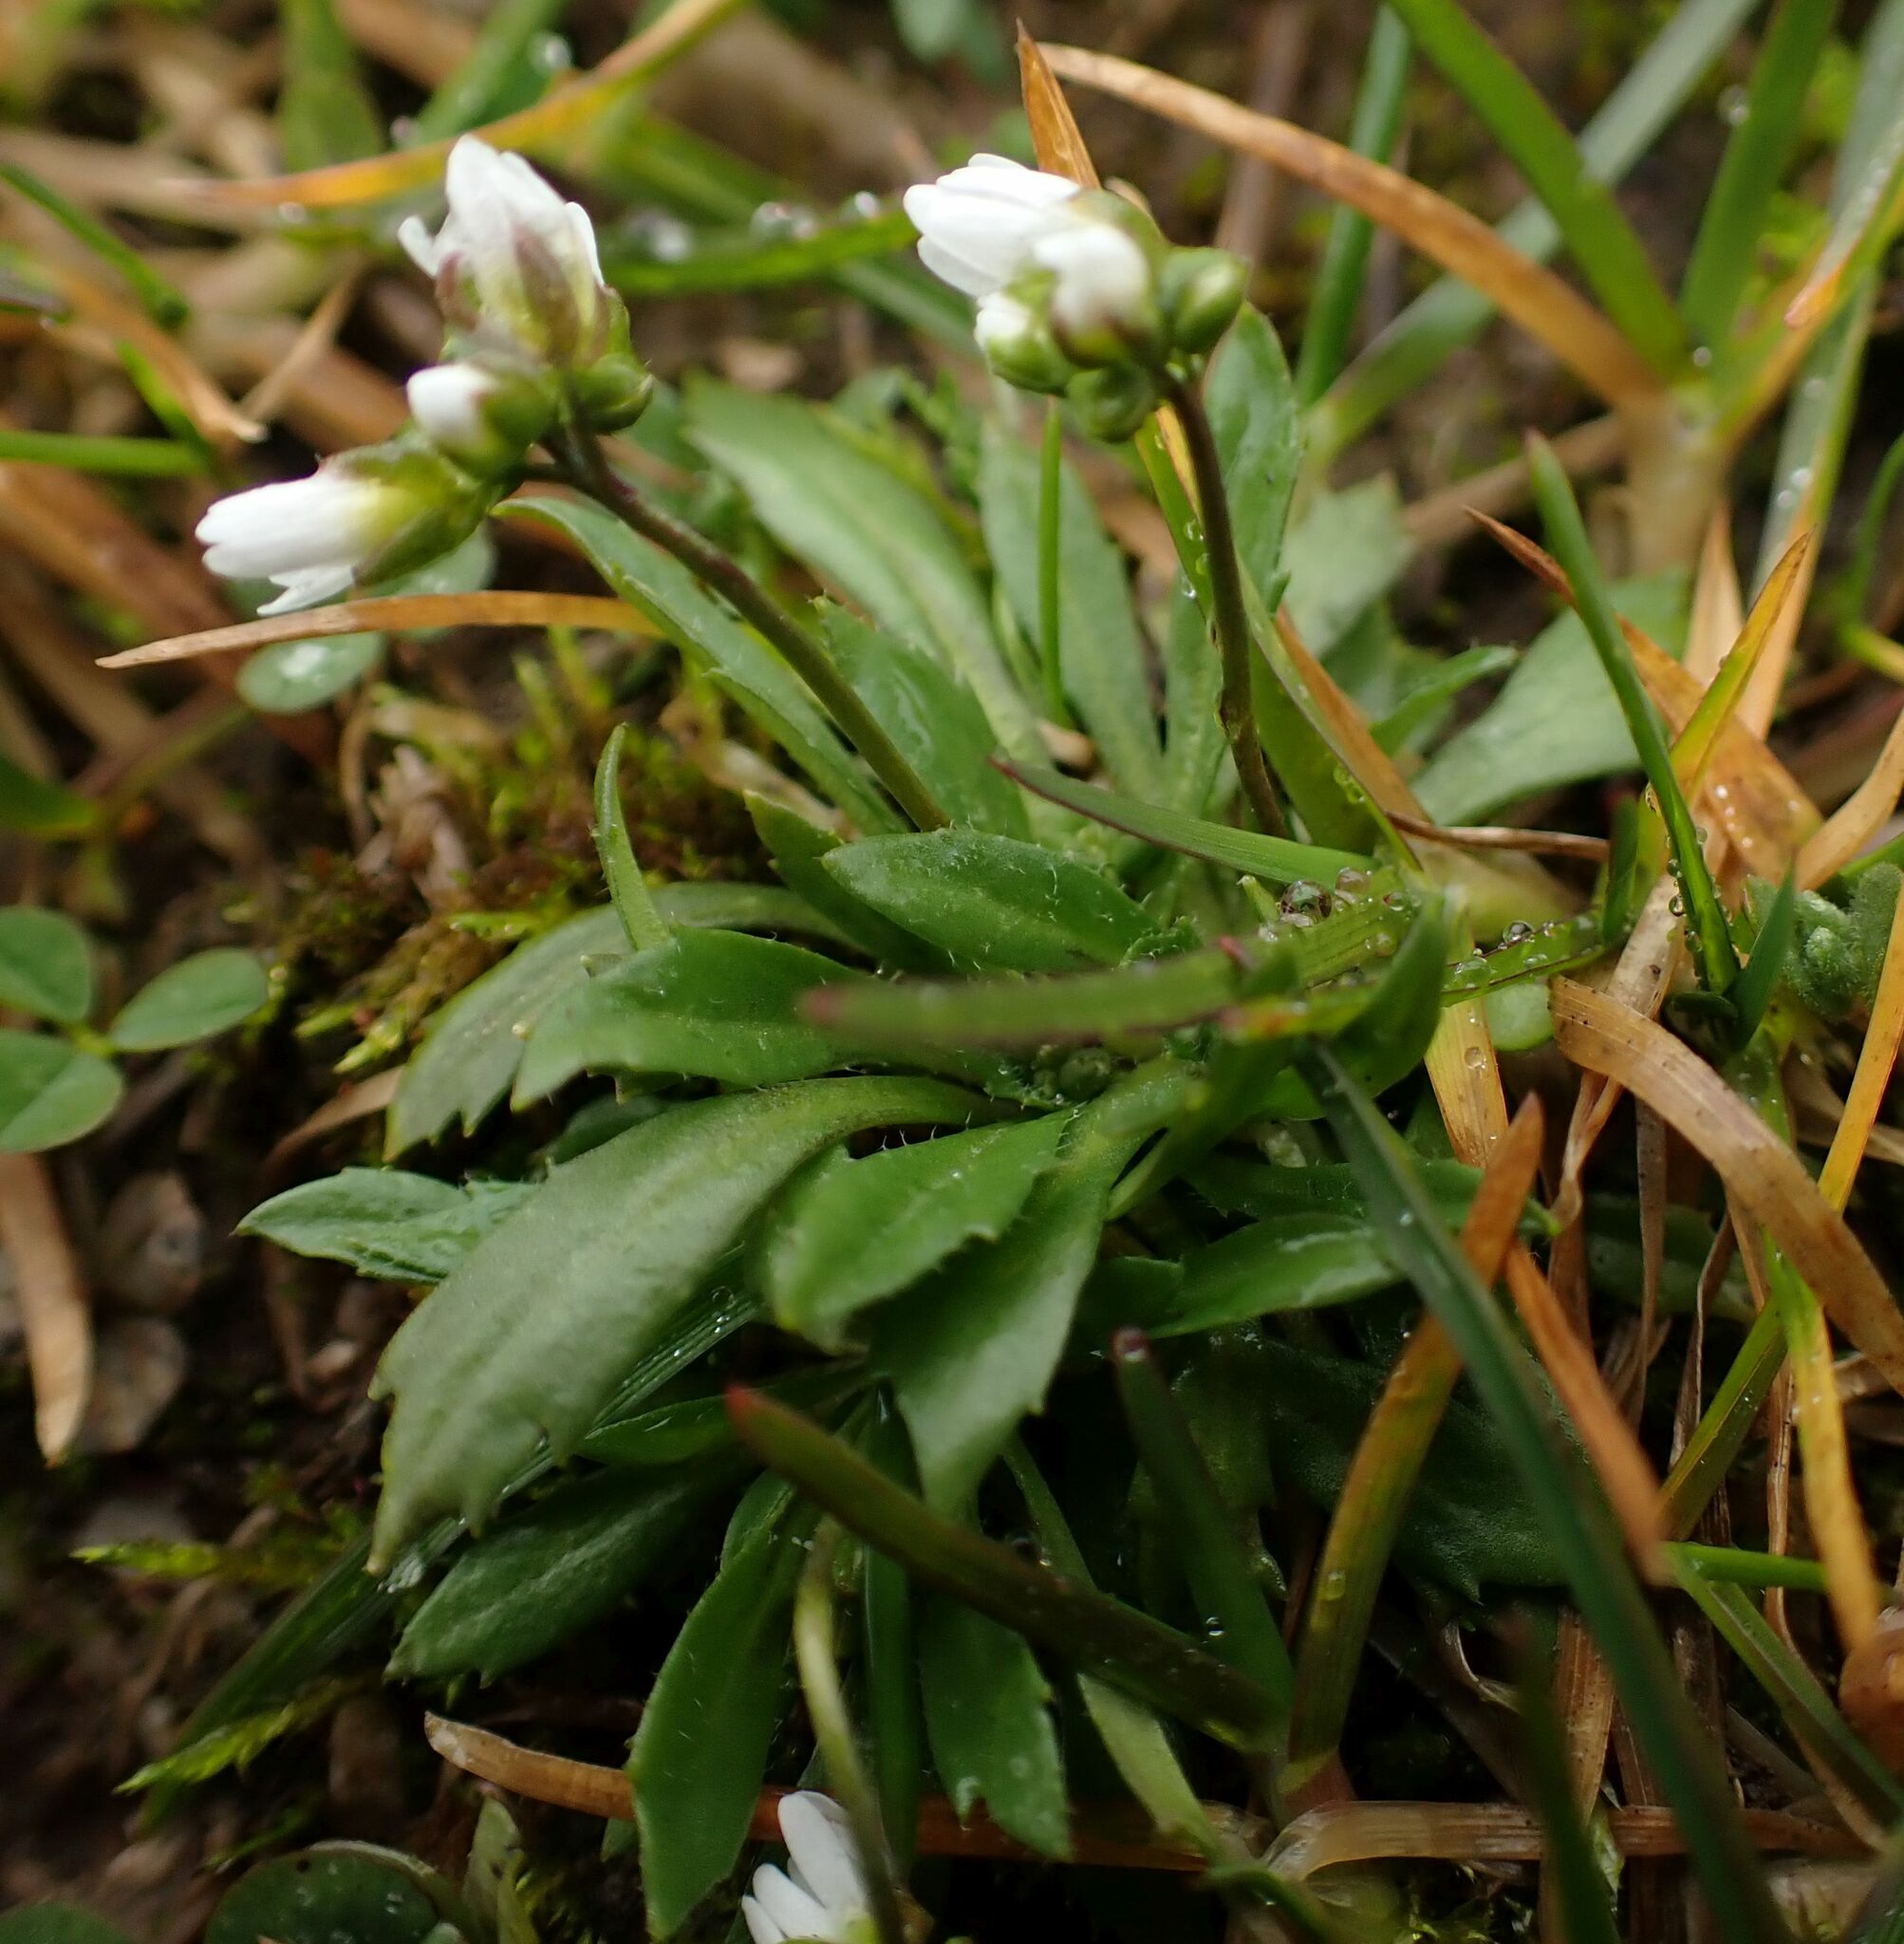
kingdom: Plantae
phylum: Tracheophyta
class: Magnoliopsida
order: Brassicales
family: Brassicaceae
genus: Draba
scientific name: Draba verna
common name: Spring draba
